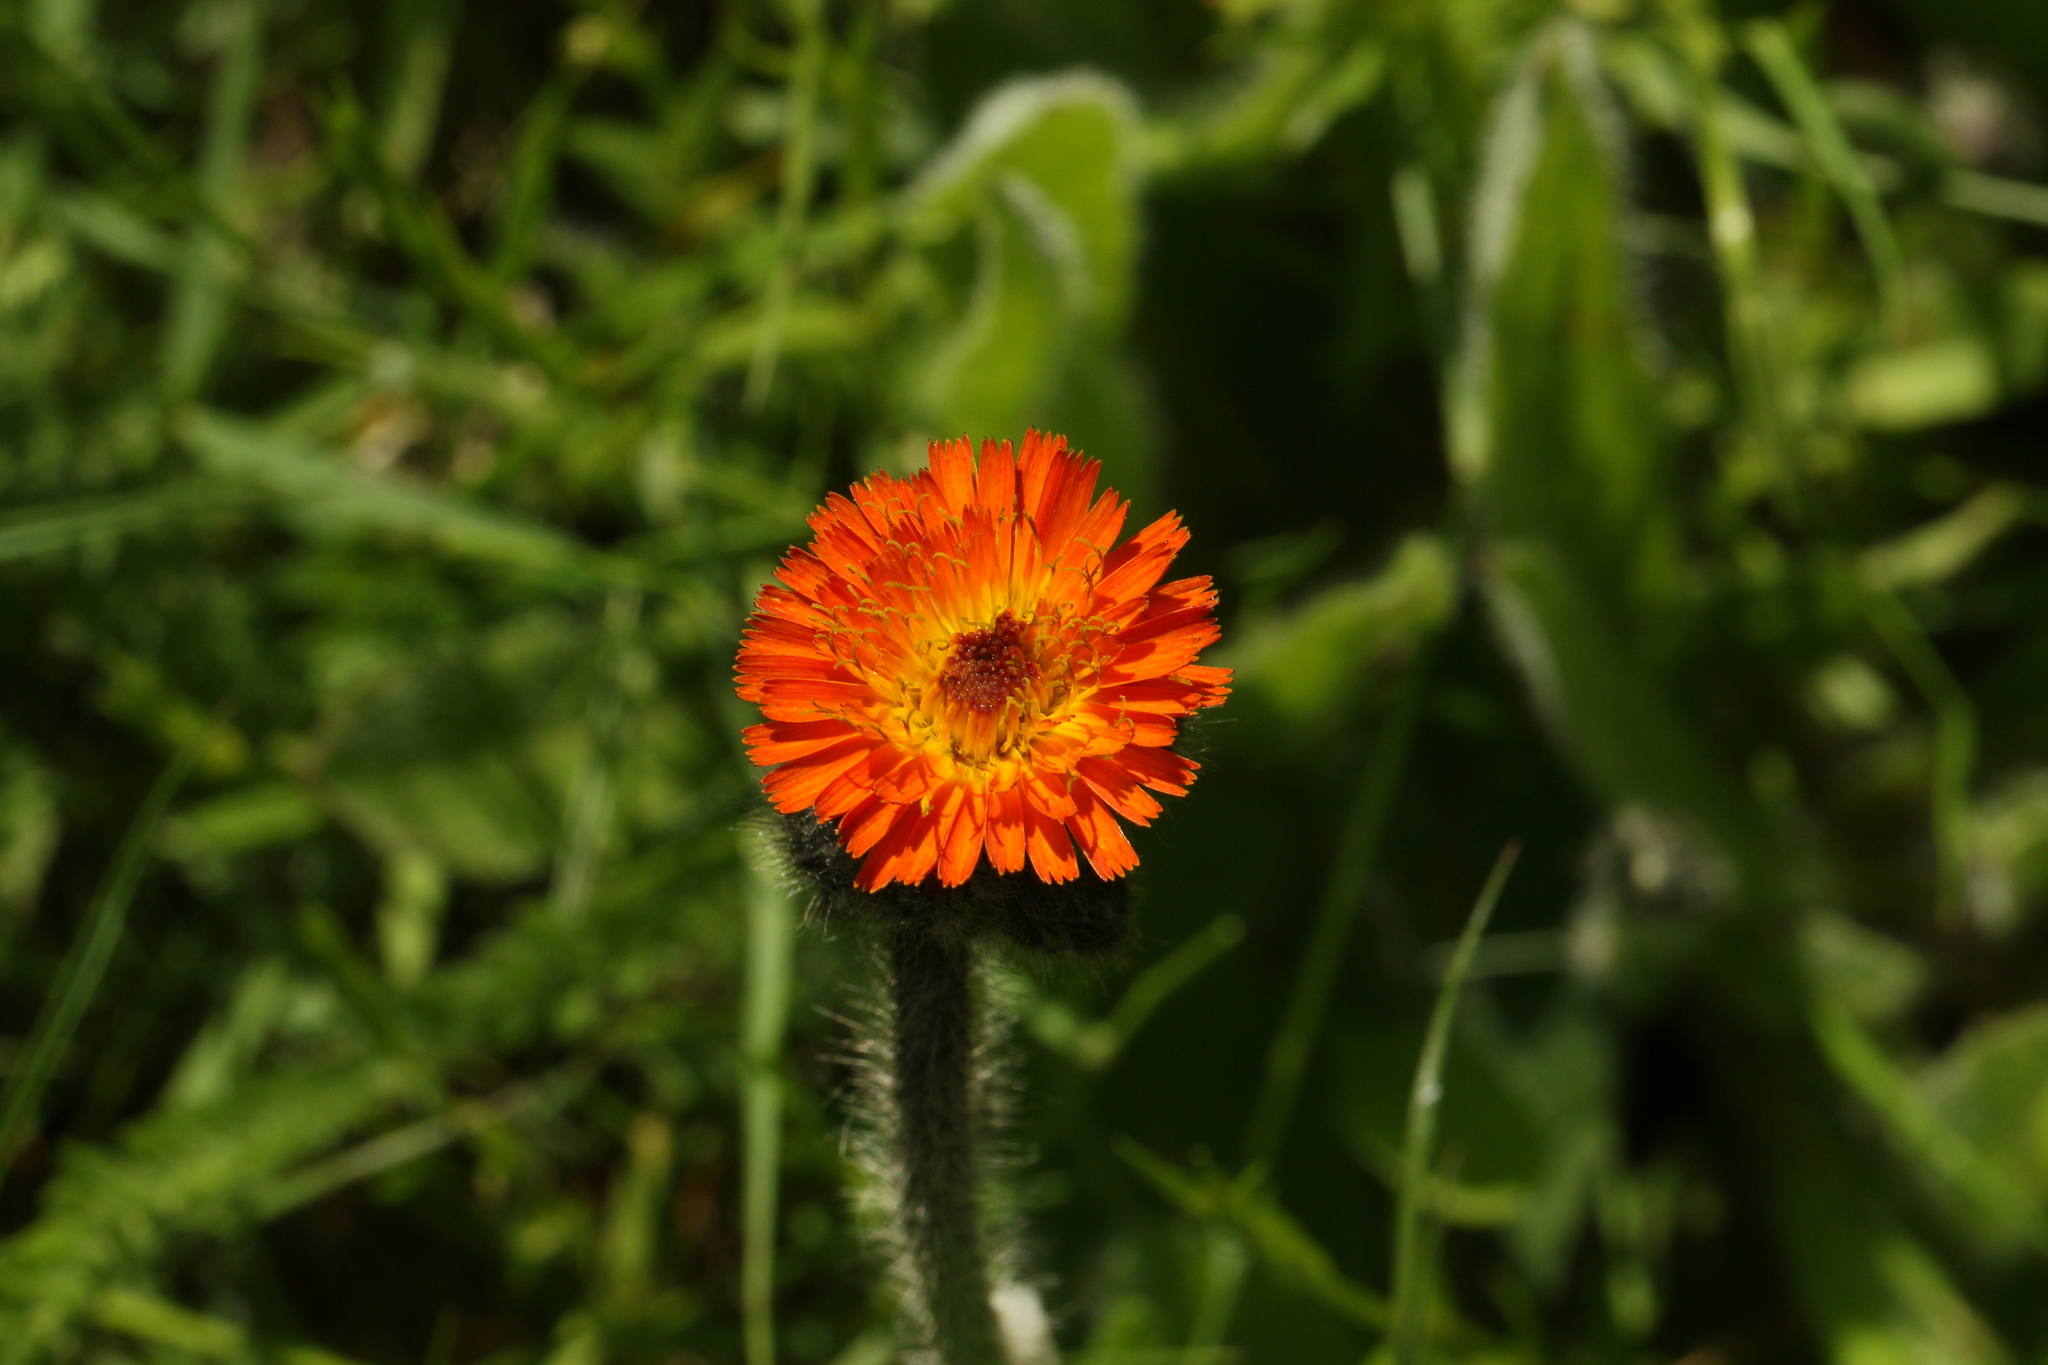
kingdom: Plantae
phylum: Tracheophyta
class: Magnoliopsida
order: Asterales
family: Asteraceae
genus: Pilosella
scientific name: Pilosella aurantiaca
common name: Fox-and-cubs
